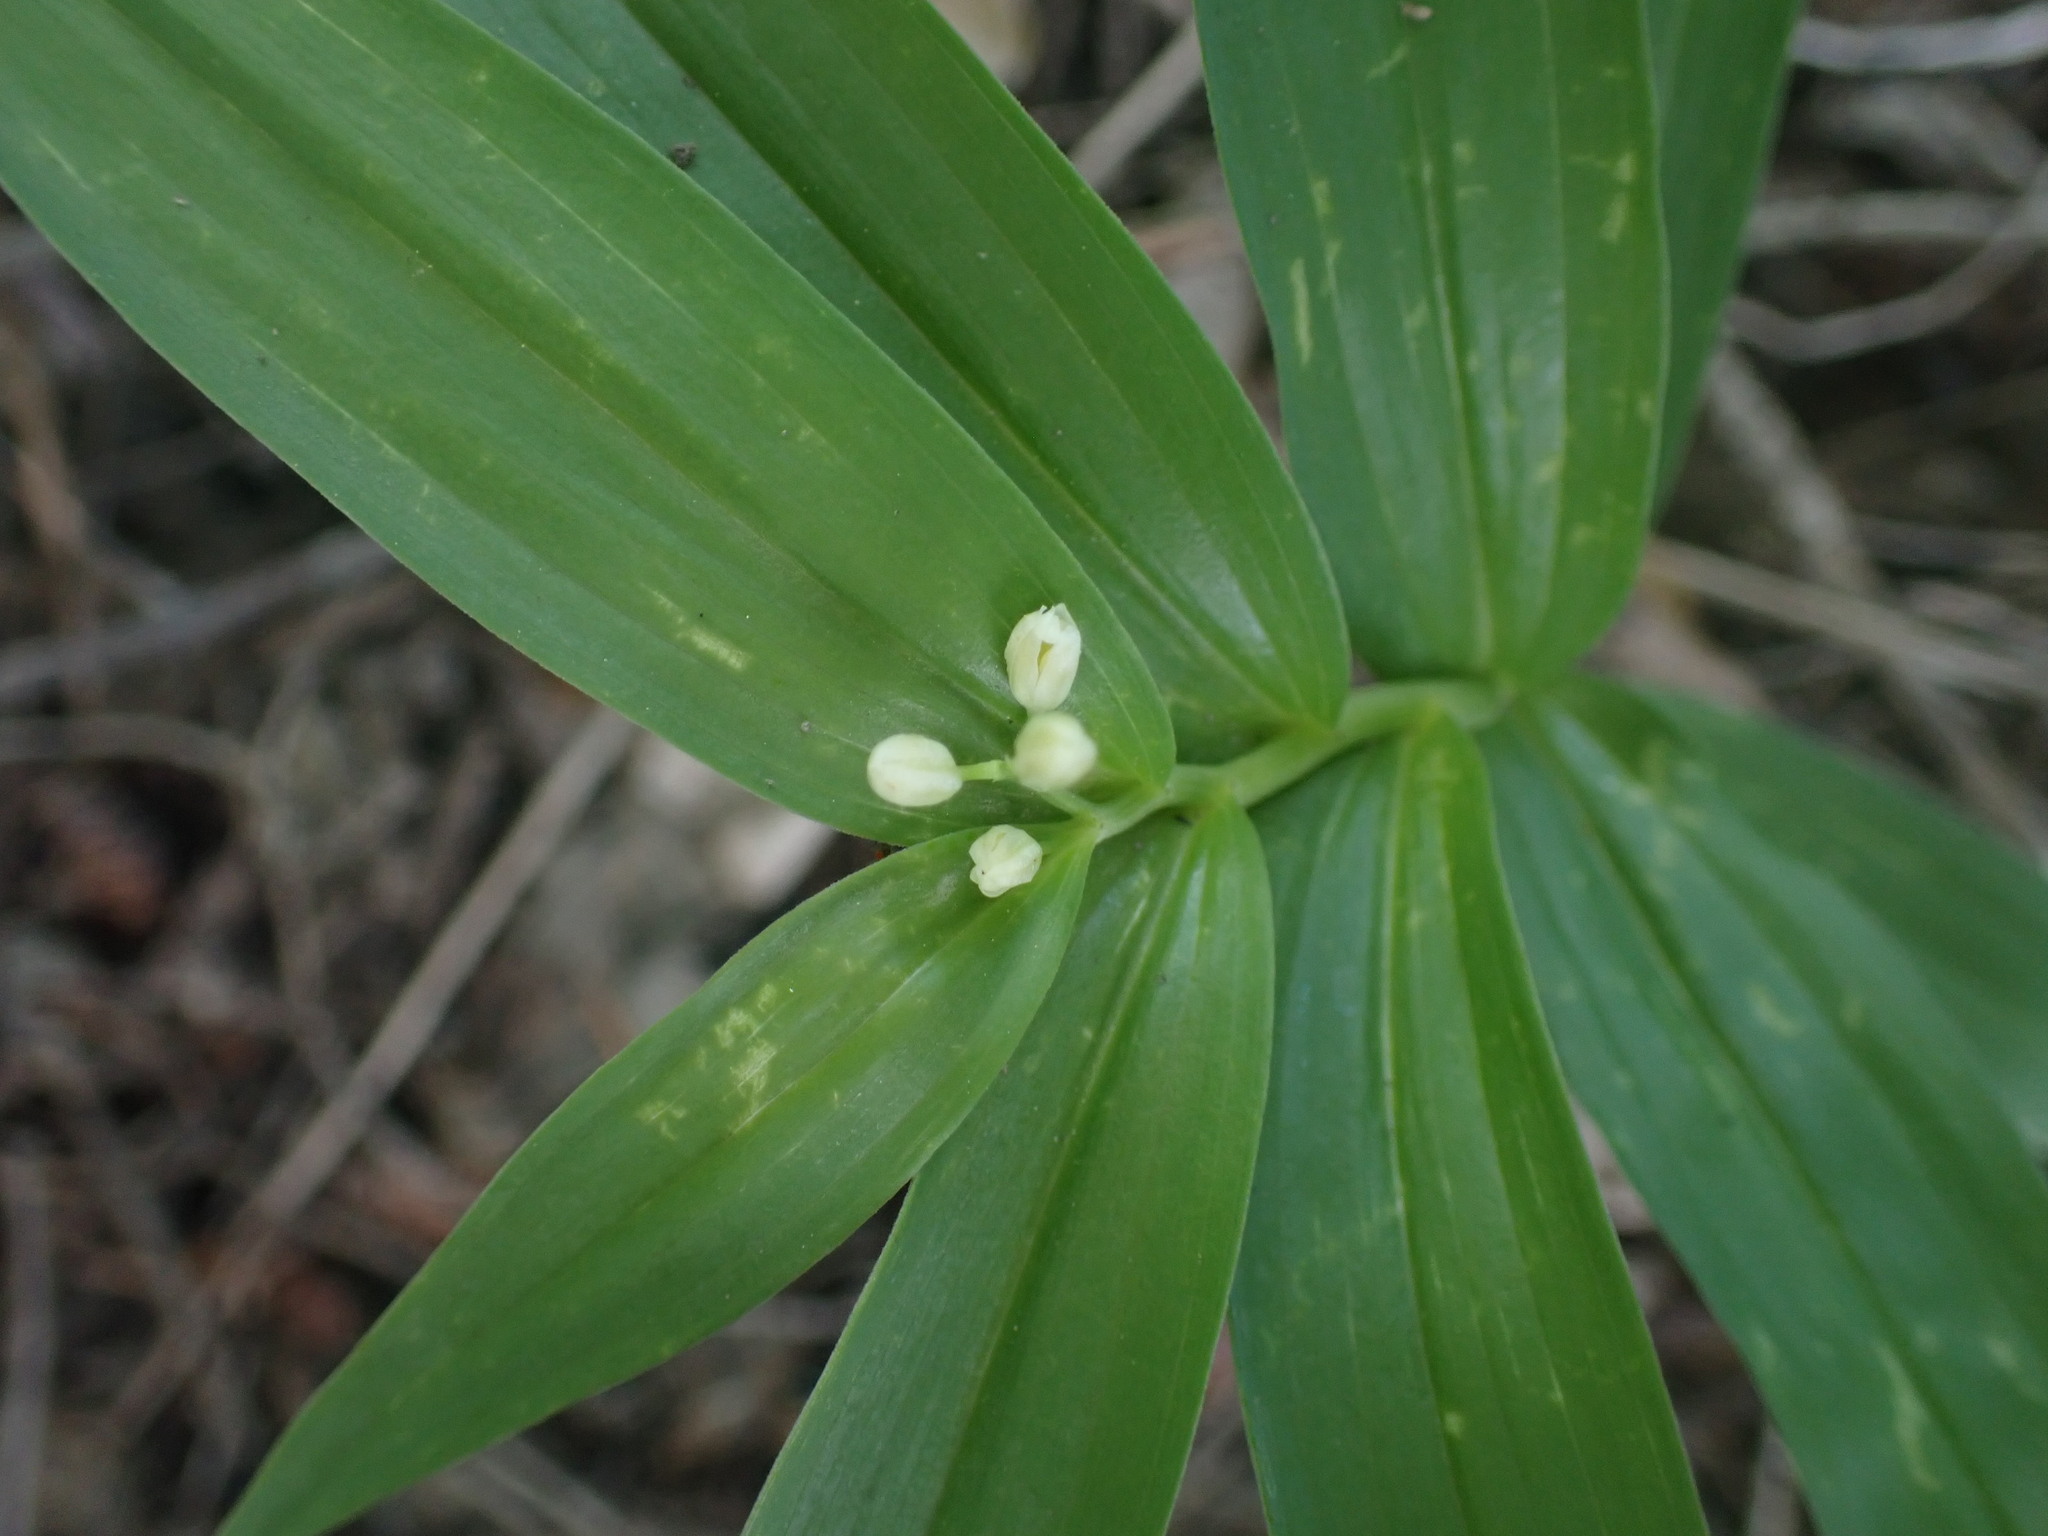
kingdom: Plantae
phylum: Tracheophyta
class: Liliopsida
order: Asparagales
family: Asparagaceae
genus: Maianthemum
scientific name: Maianthemum stellatum
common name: Little false solomon's seal
